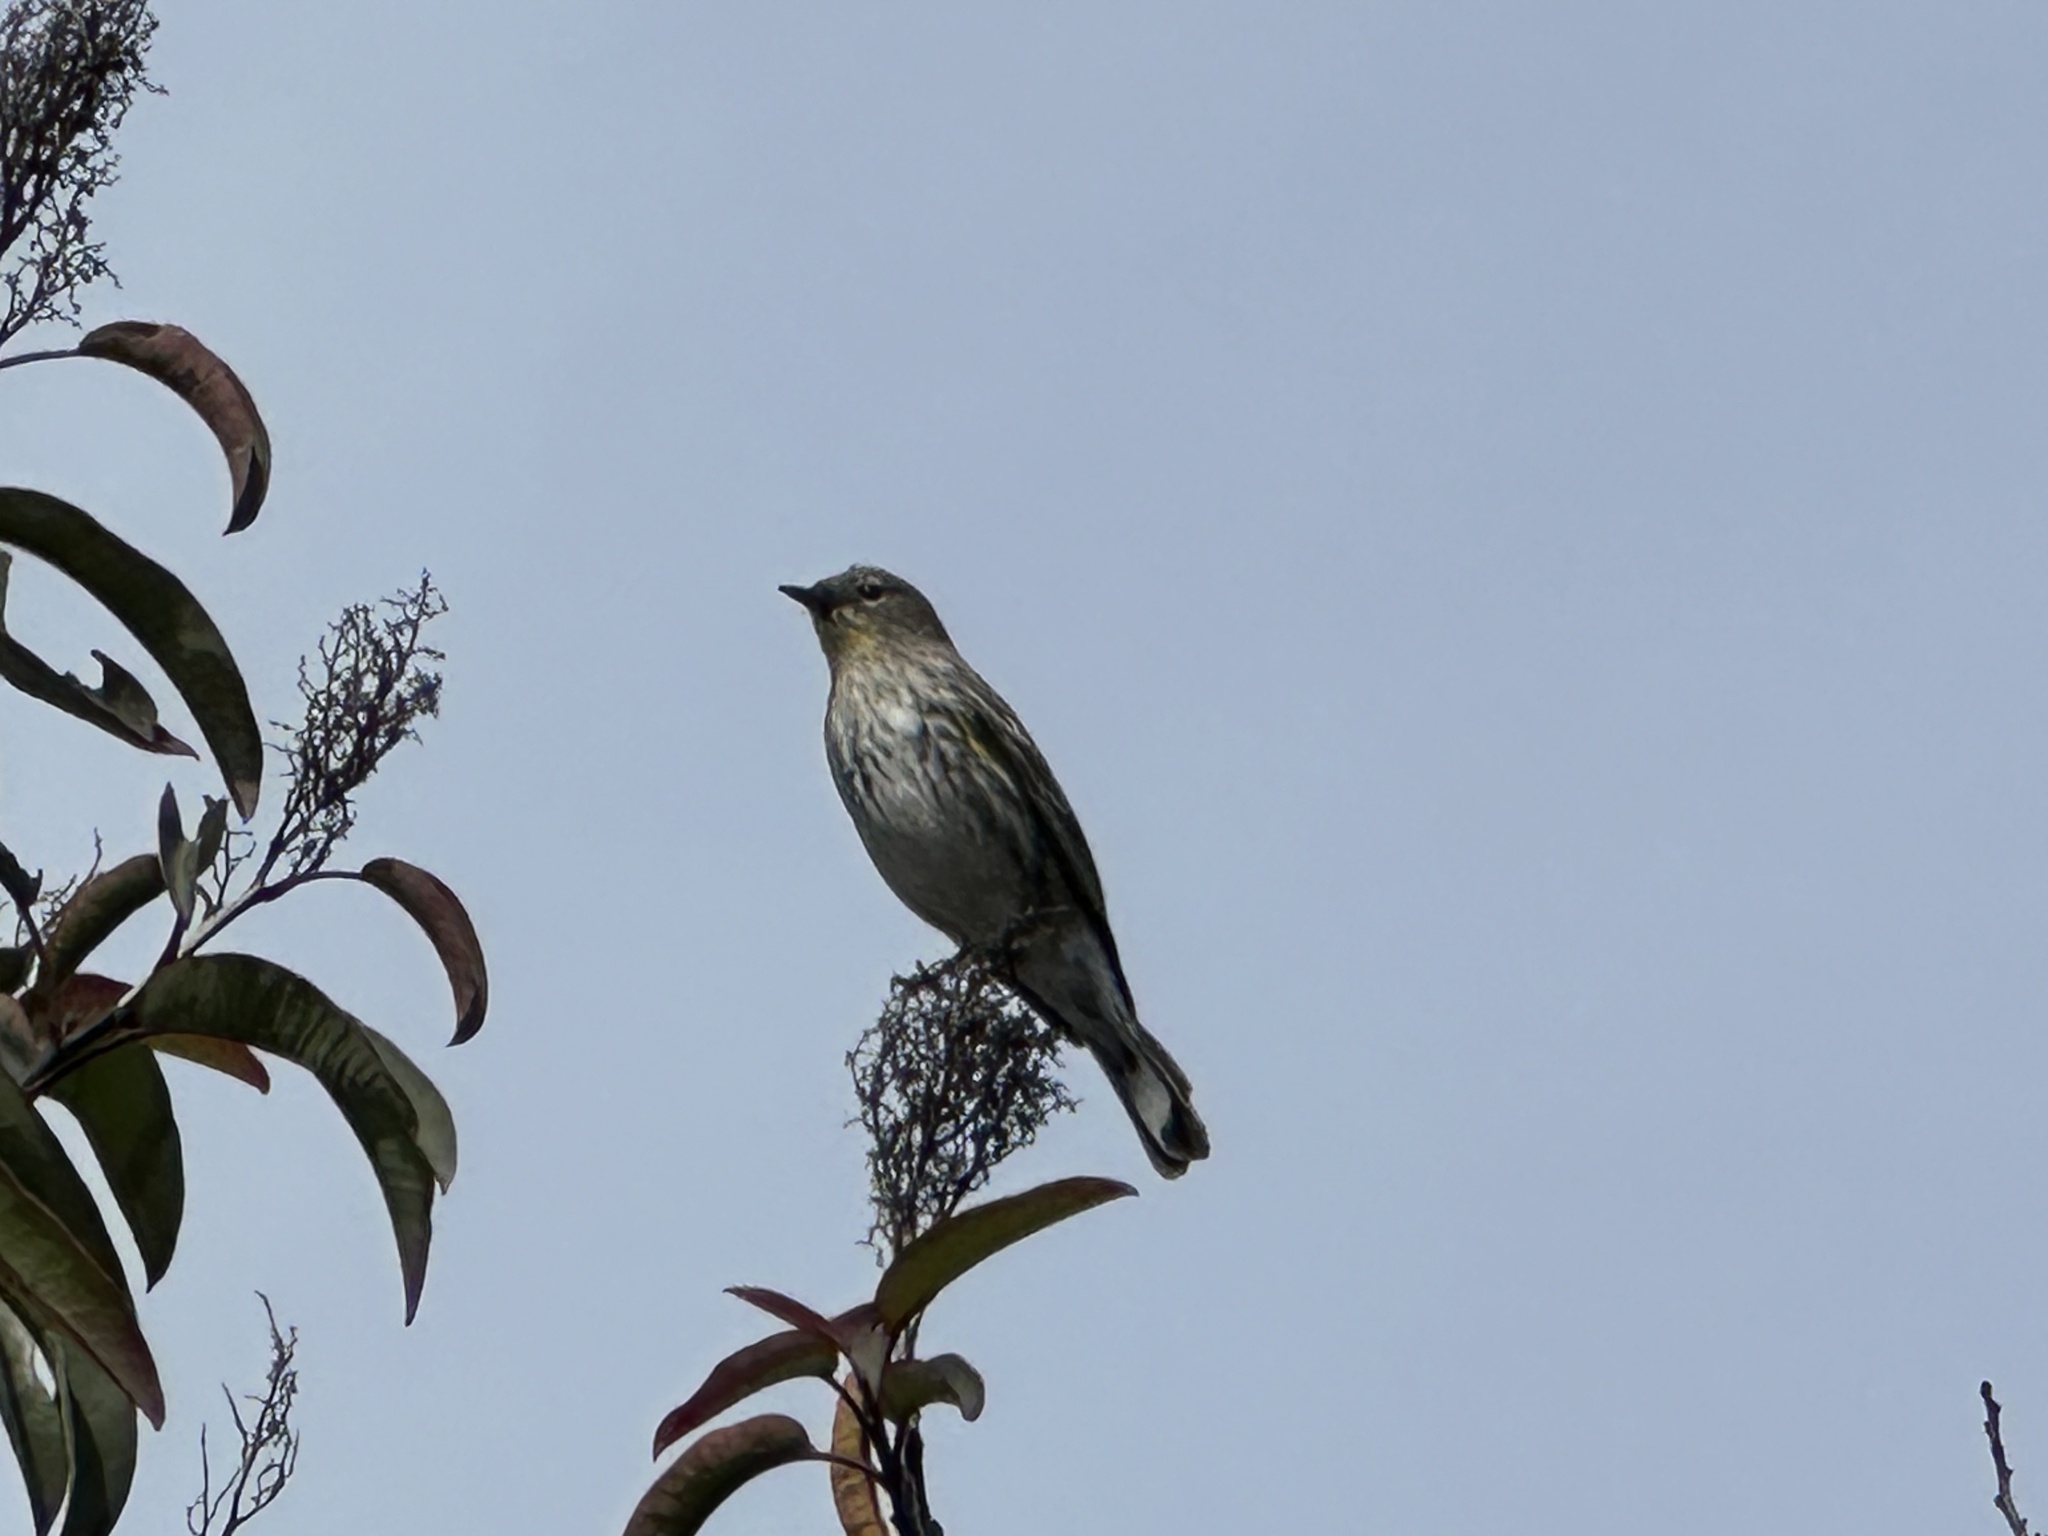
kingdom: Animalia
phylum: Chordata
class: Aves
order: Passeriformes
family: Parulidae
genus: Setophaga
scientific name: Setophaga auduboni
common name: Audubon's warbler
